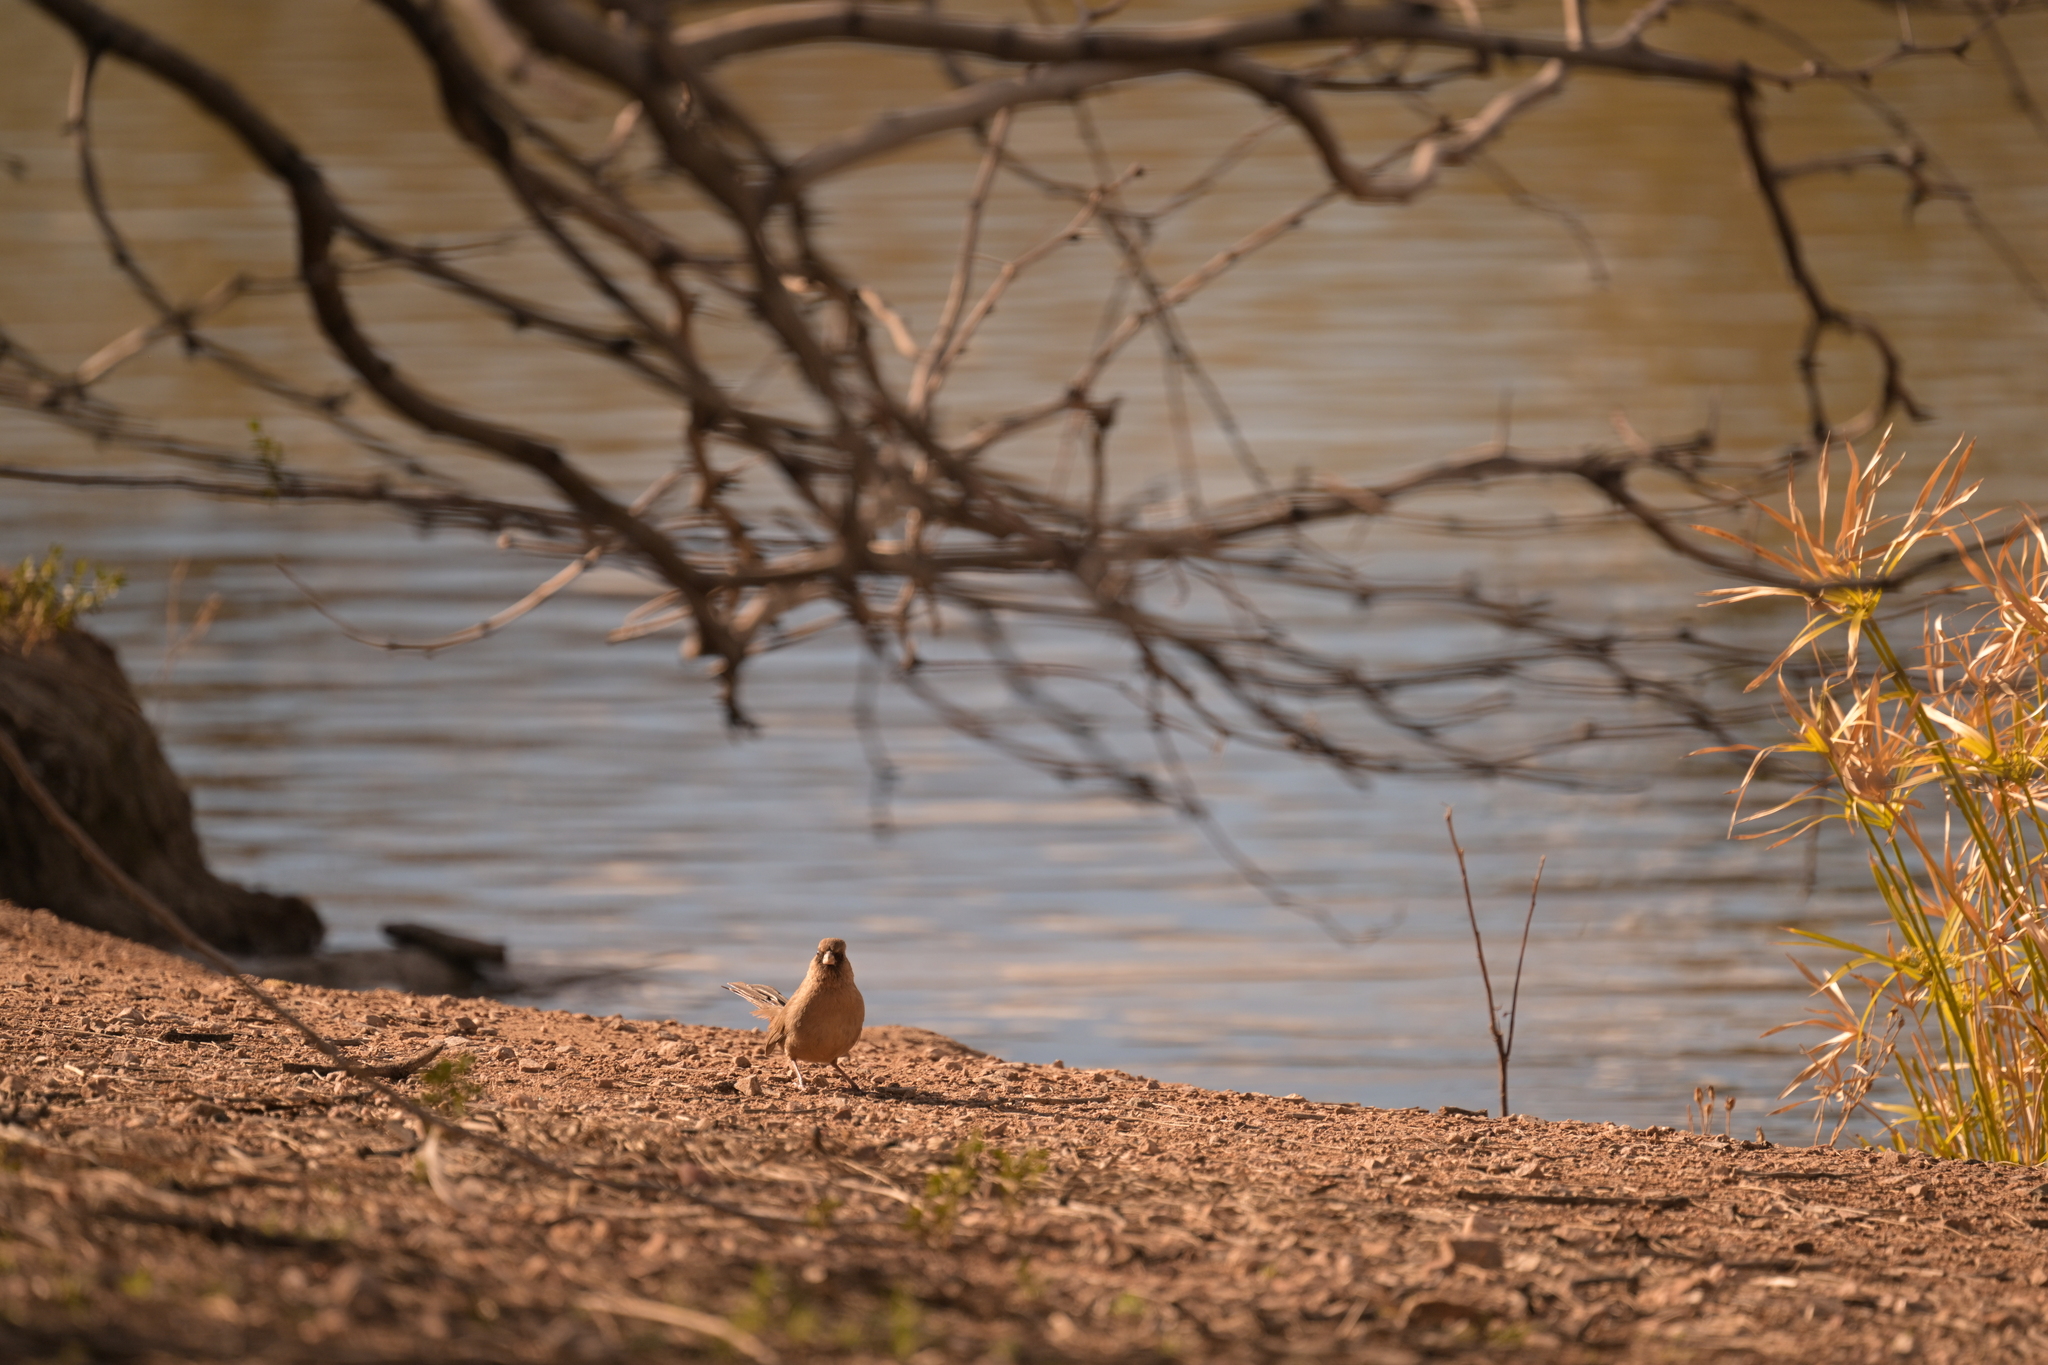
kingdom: Animalia
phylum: Chordata
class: Aves
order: Passeriformes
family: Passerellidae
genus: Melozone
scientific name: Melozone aberti
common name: Abert's towhee
